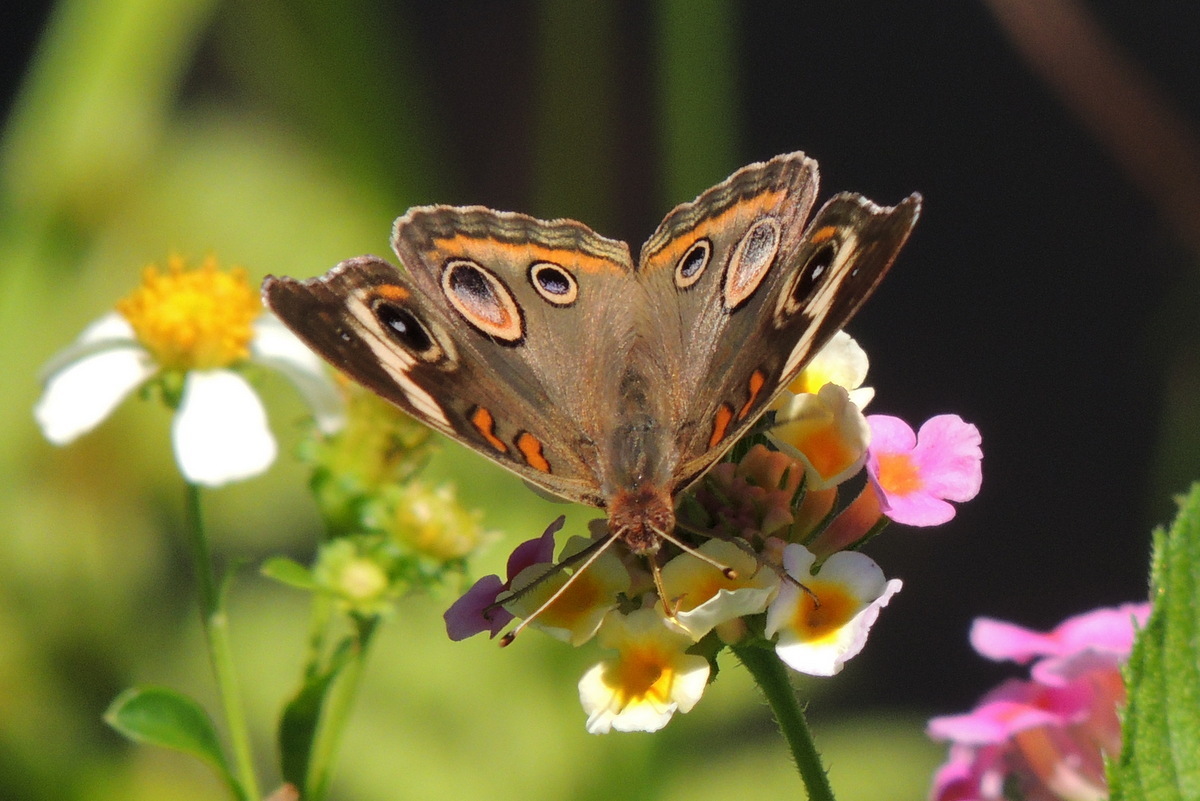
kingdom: Animalia
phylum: Arthropoda
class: Insecta
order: Lepidoptera
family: Nymphalidae
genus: Junonia
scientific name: Junonia coenia
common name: Common buckeye
